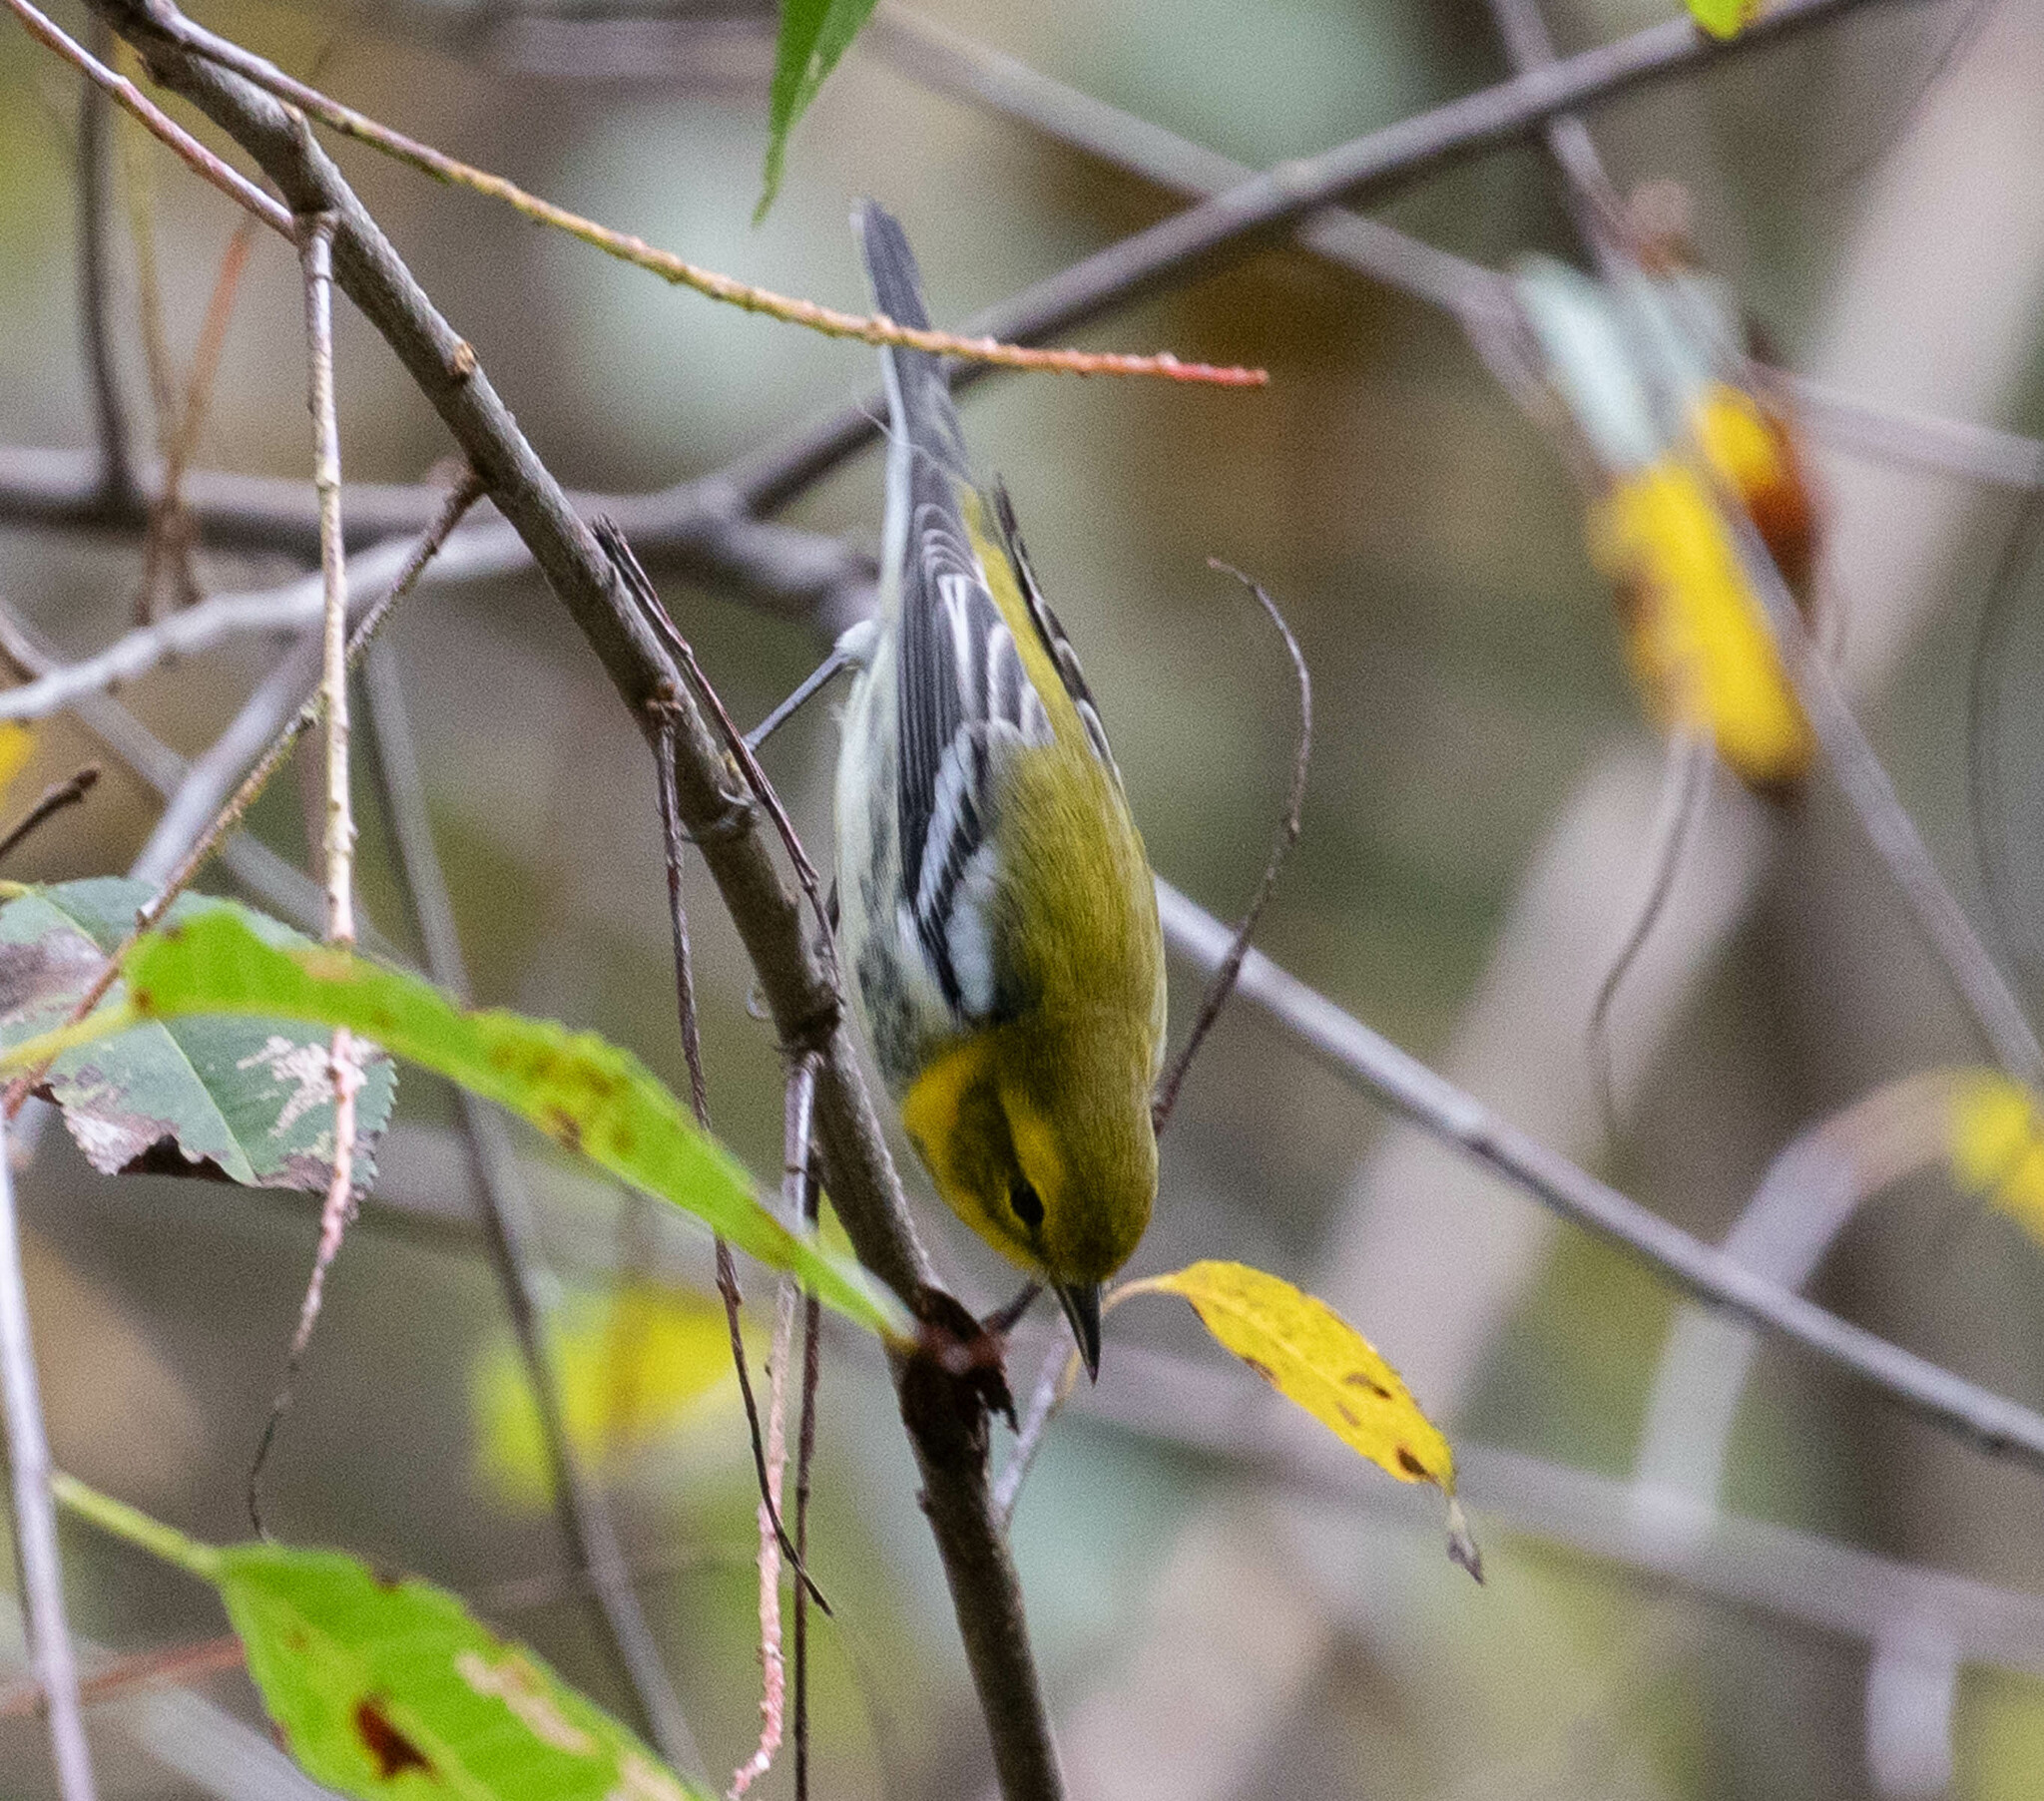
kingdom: Animalia
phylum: Chordata
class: Aves
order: Passeriformes
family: Parulidae
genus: Setophaga
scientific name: Setophaga virens
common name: Black-throated green warbler
